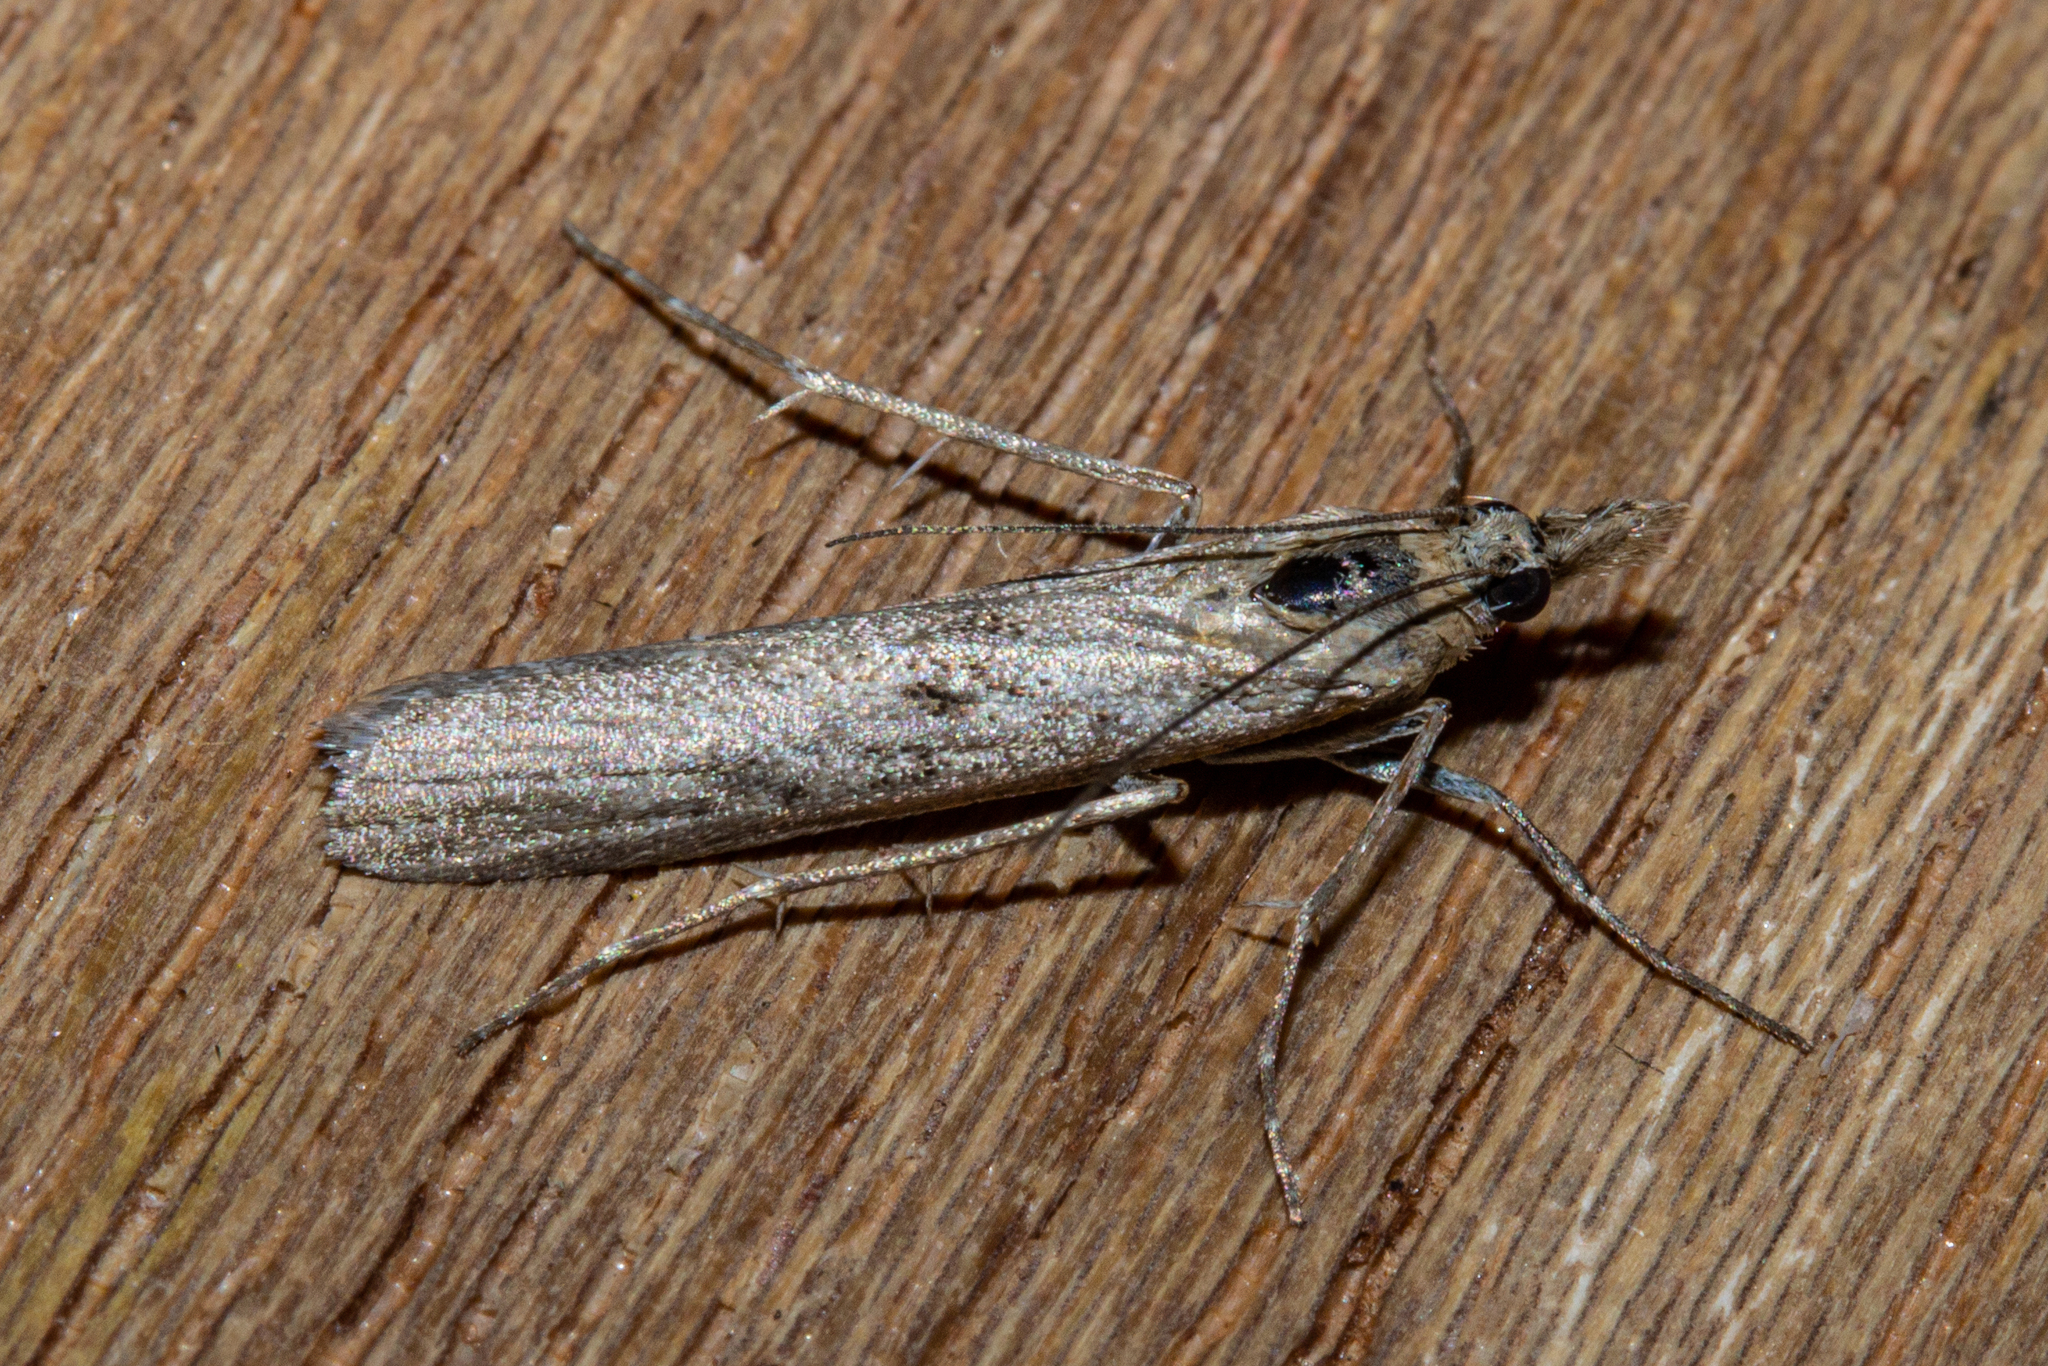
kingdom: Animalia
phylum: Arthropoda
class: Insecta
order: Lepidoptera
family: Crambidae
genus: Eudonia
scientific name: Eudonia leptalea
